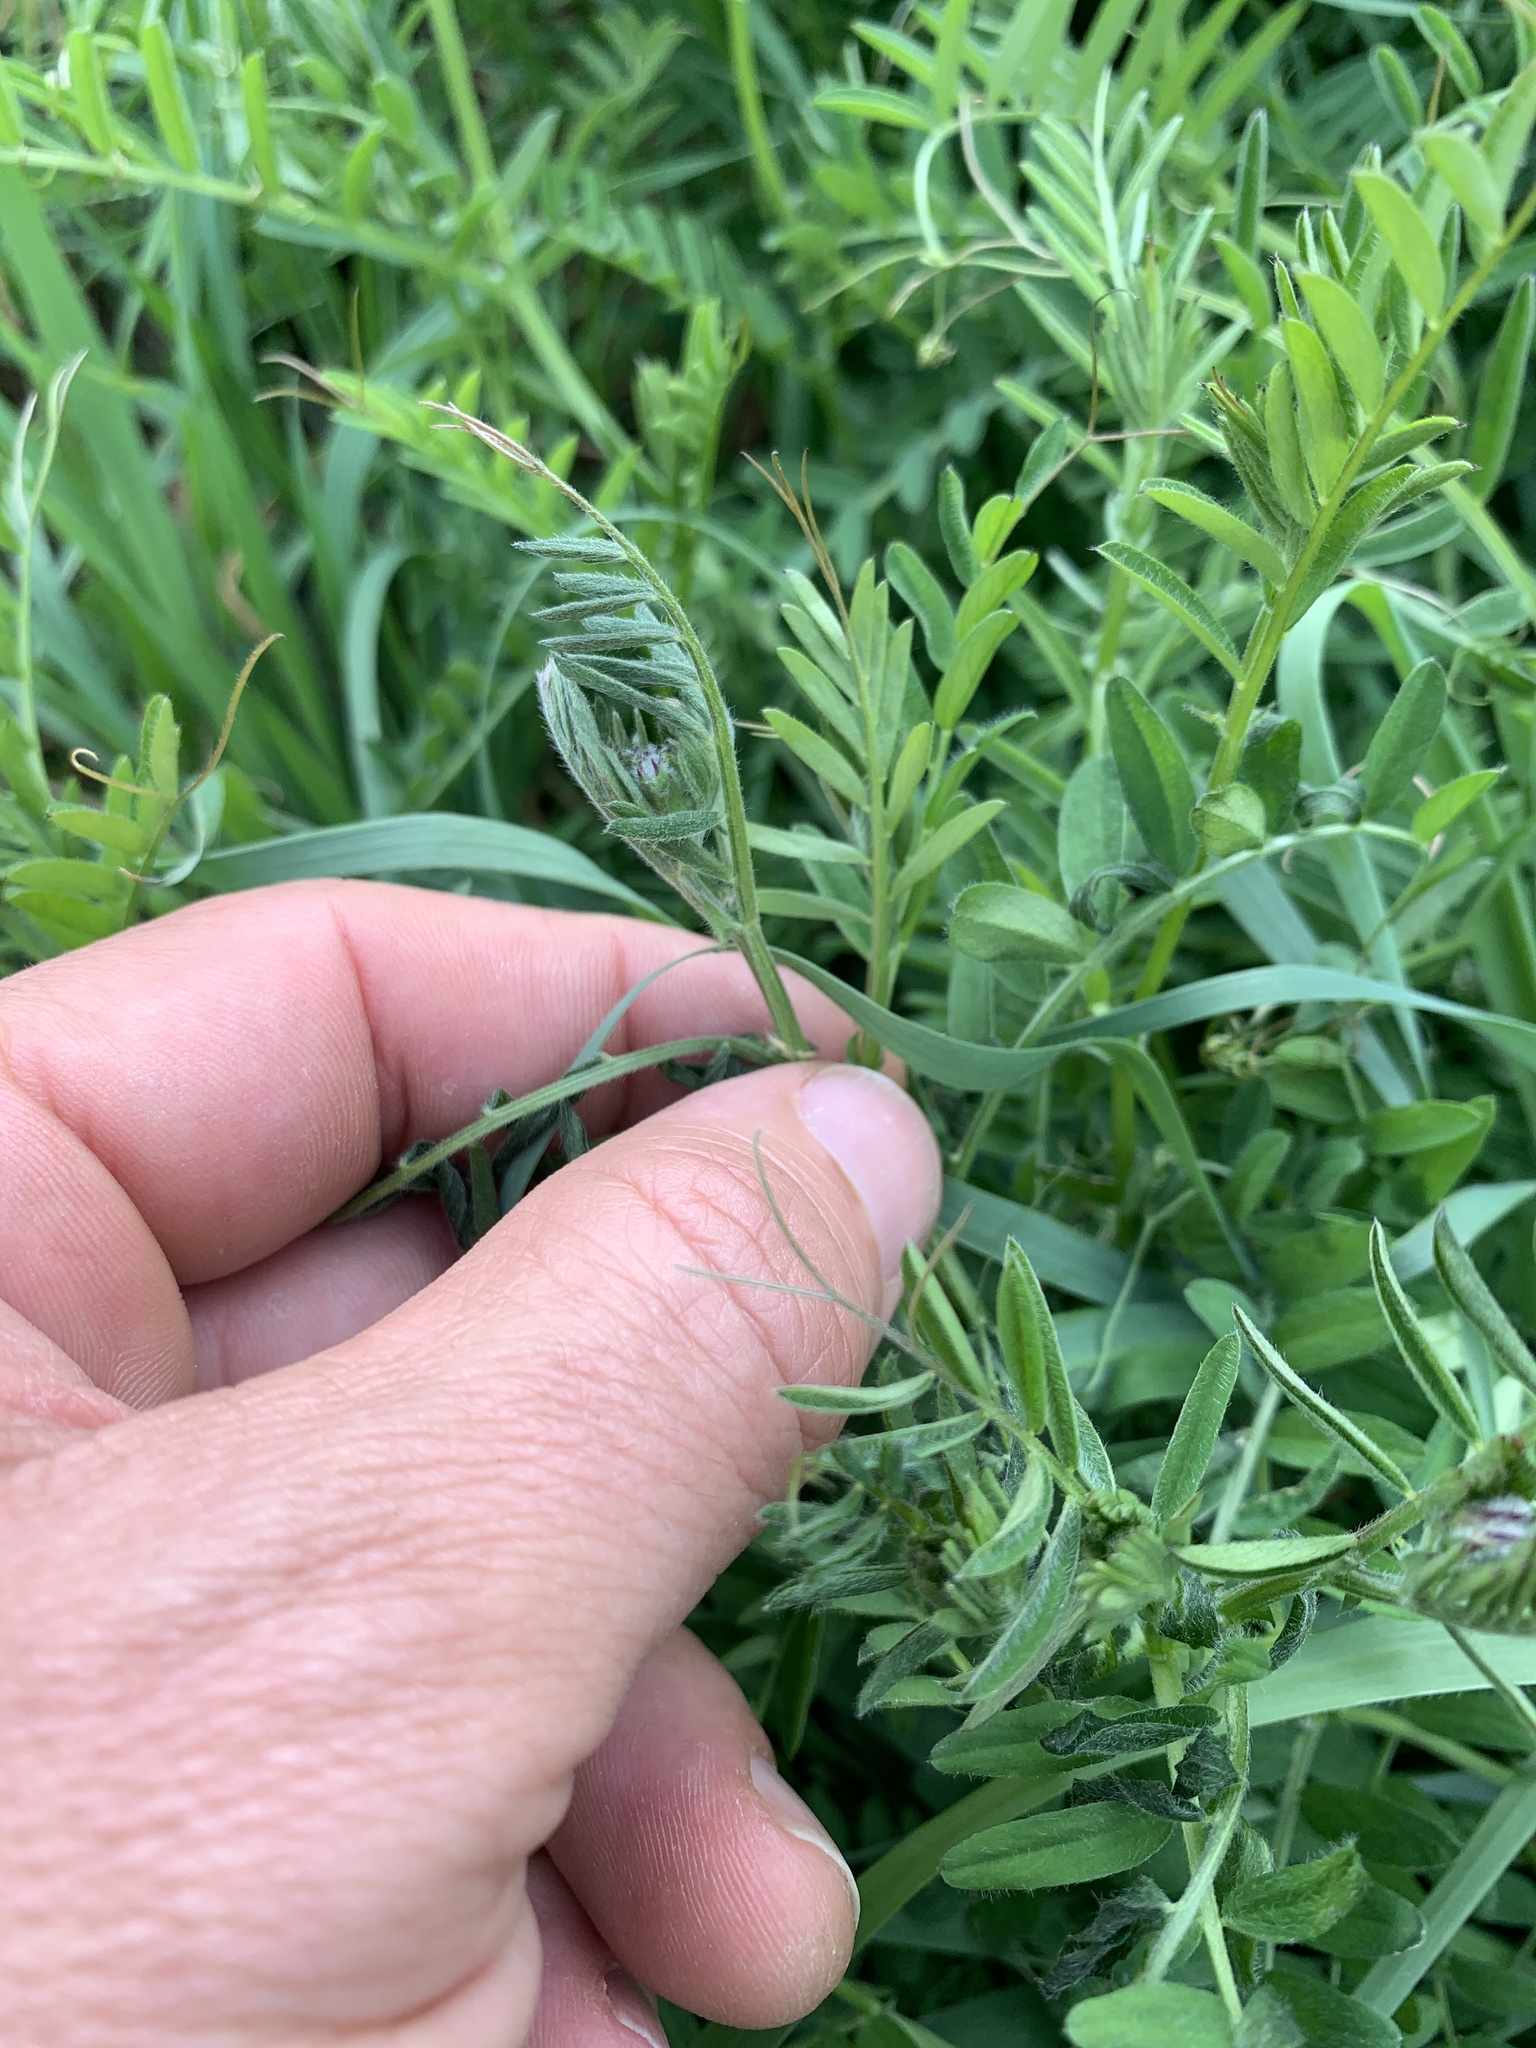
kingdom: Plantae
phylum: Tracheophyta
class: Magnoliopsida
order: Fabales
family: Fabaceae
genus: Vicia
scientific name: Vicia villosa
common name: Fodder vetch
